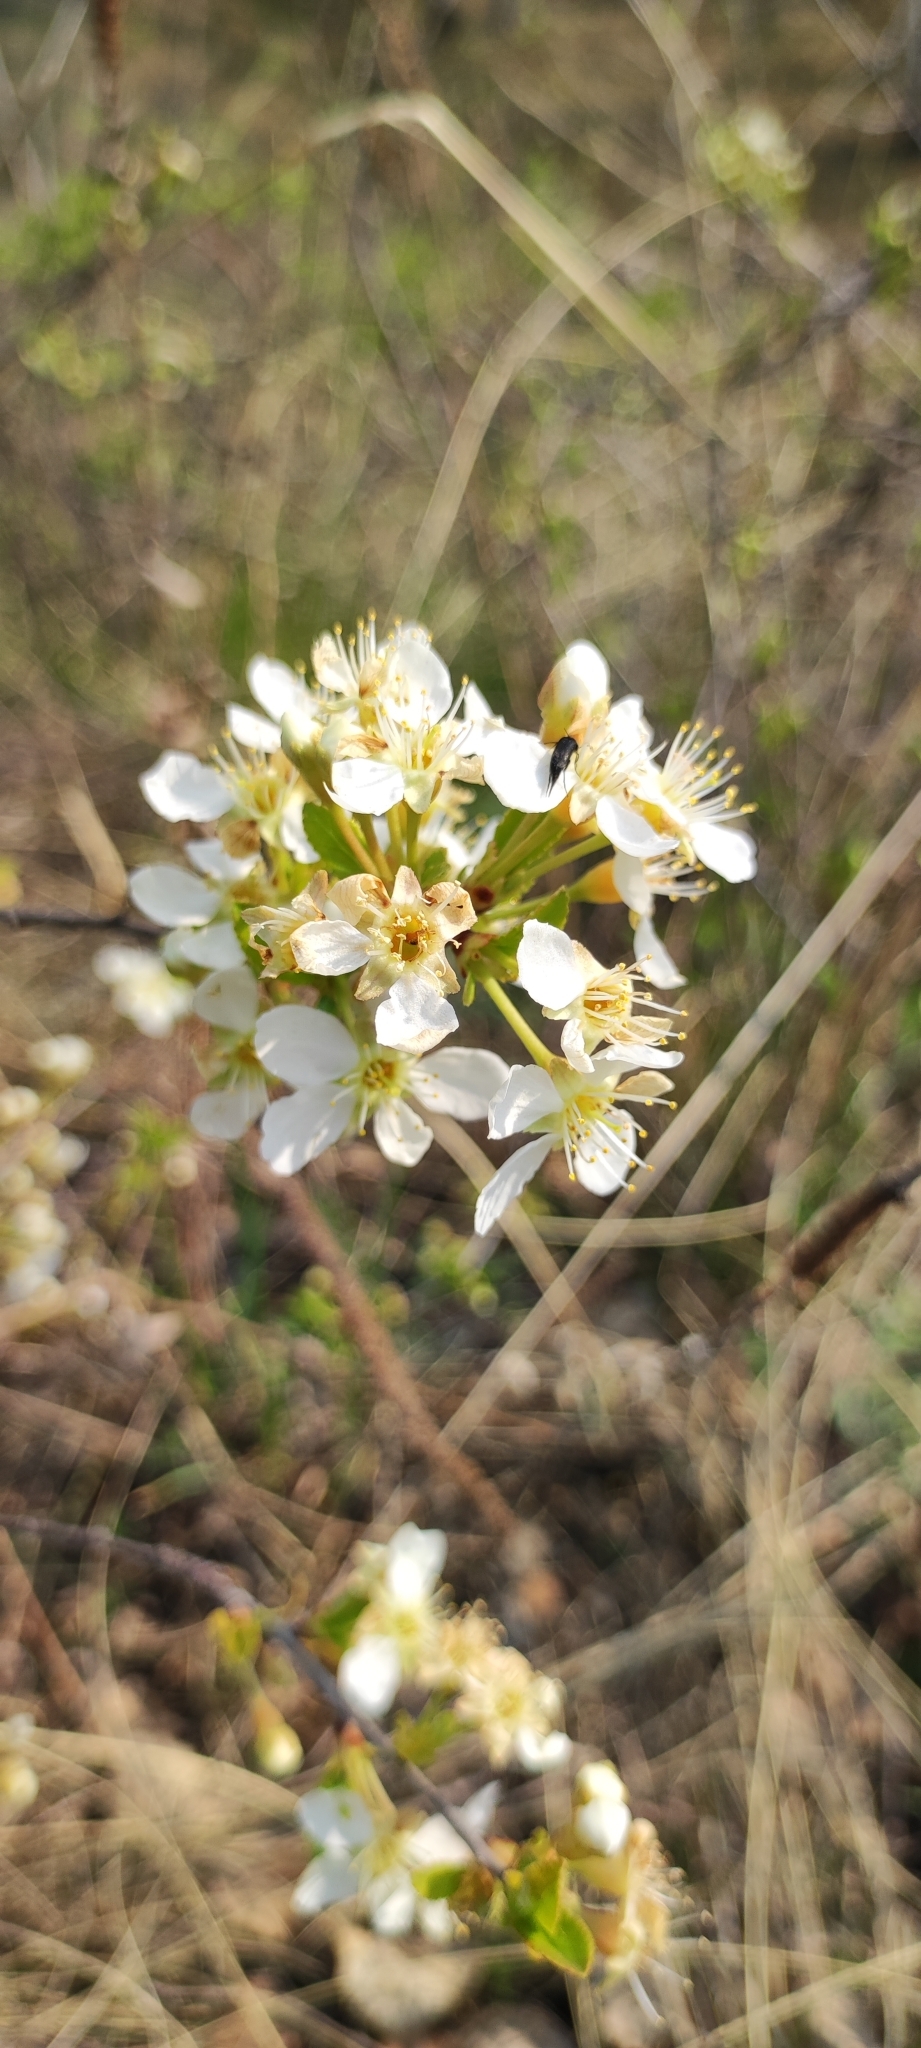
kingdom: Plantae
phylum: Tracheophyta
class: Magnoliopsida
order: Rosales
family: Rosaceae
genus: Prunus
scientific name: Prunus fruticosa
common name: European dwarf cherry
